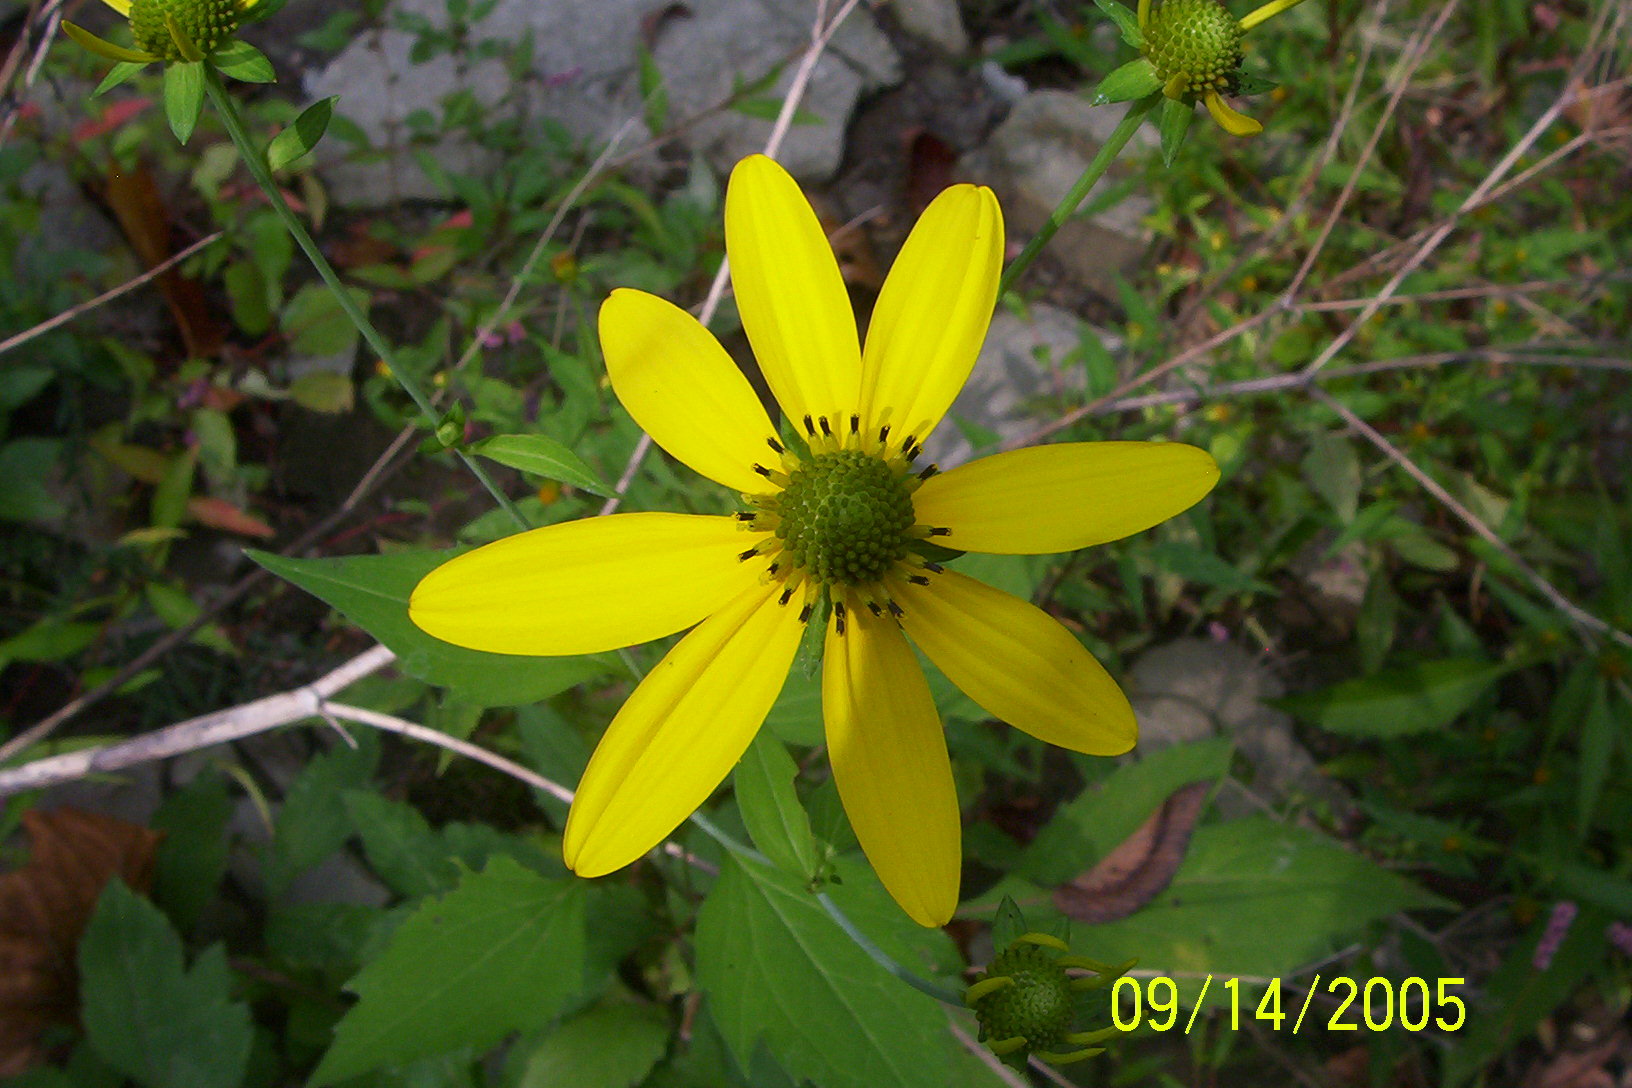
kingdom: Plantae
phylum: Tracheophyta
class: Magnoliopsida
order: Asterales
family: Asteraceae
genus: Rudbeckia
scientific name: Rudbeckia laciniata
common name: Coneflower
